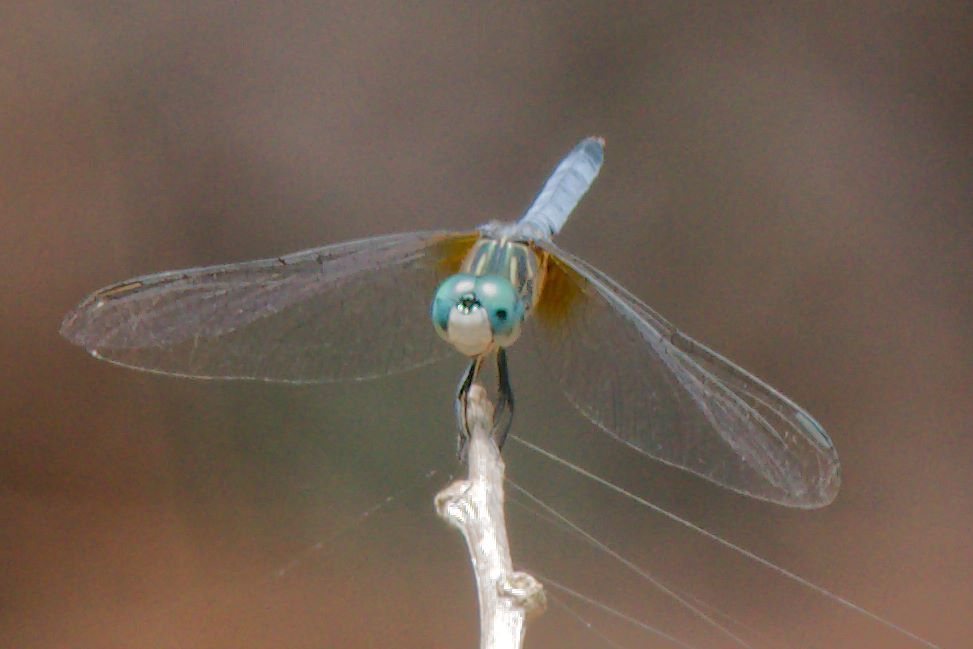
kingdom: Animalia
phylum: Arthropoda
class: Insecta
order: Odonata
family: Libellulidae
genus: Pachydiplax
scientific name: Pachydiplax longipennis
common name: Blue dasher
